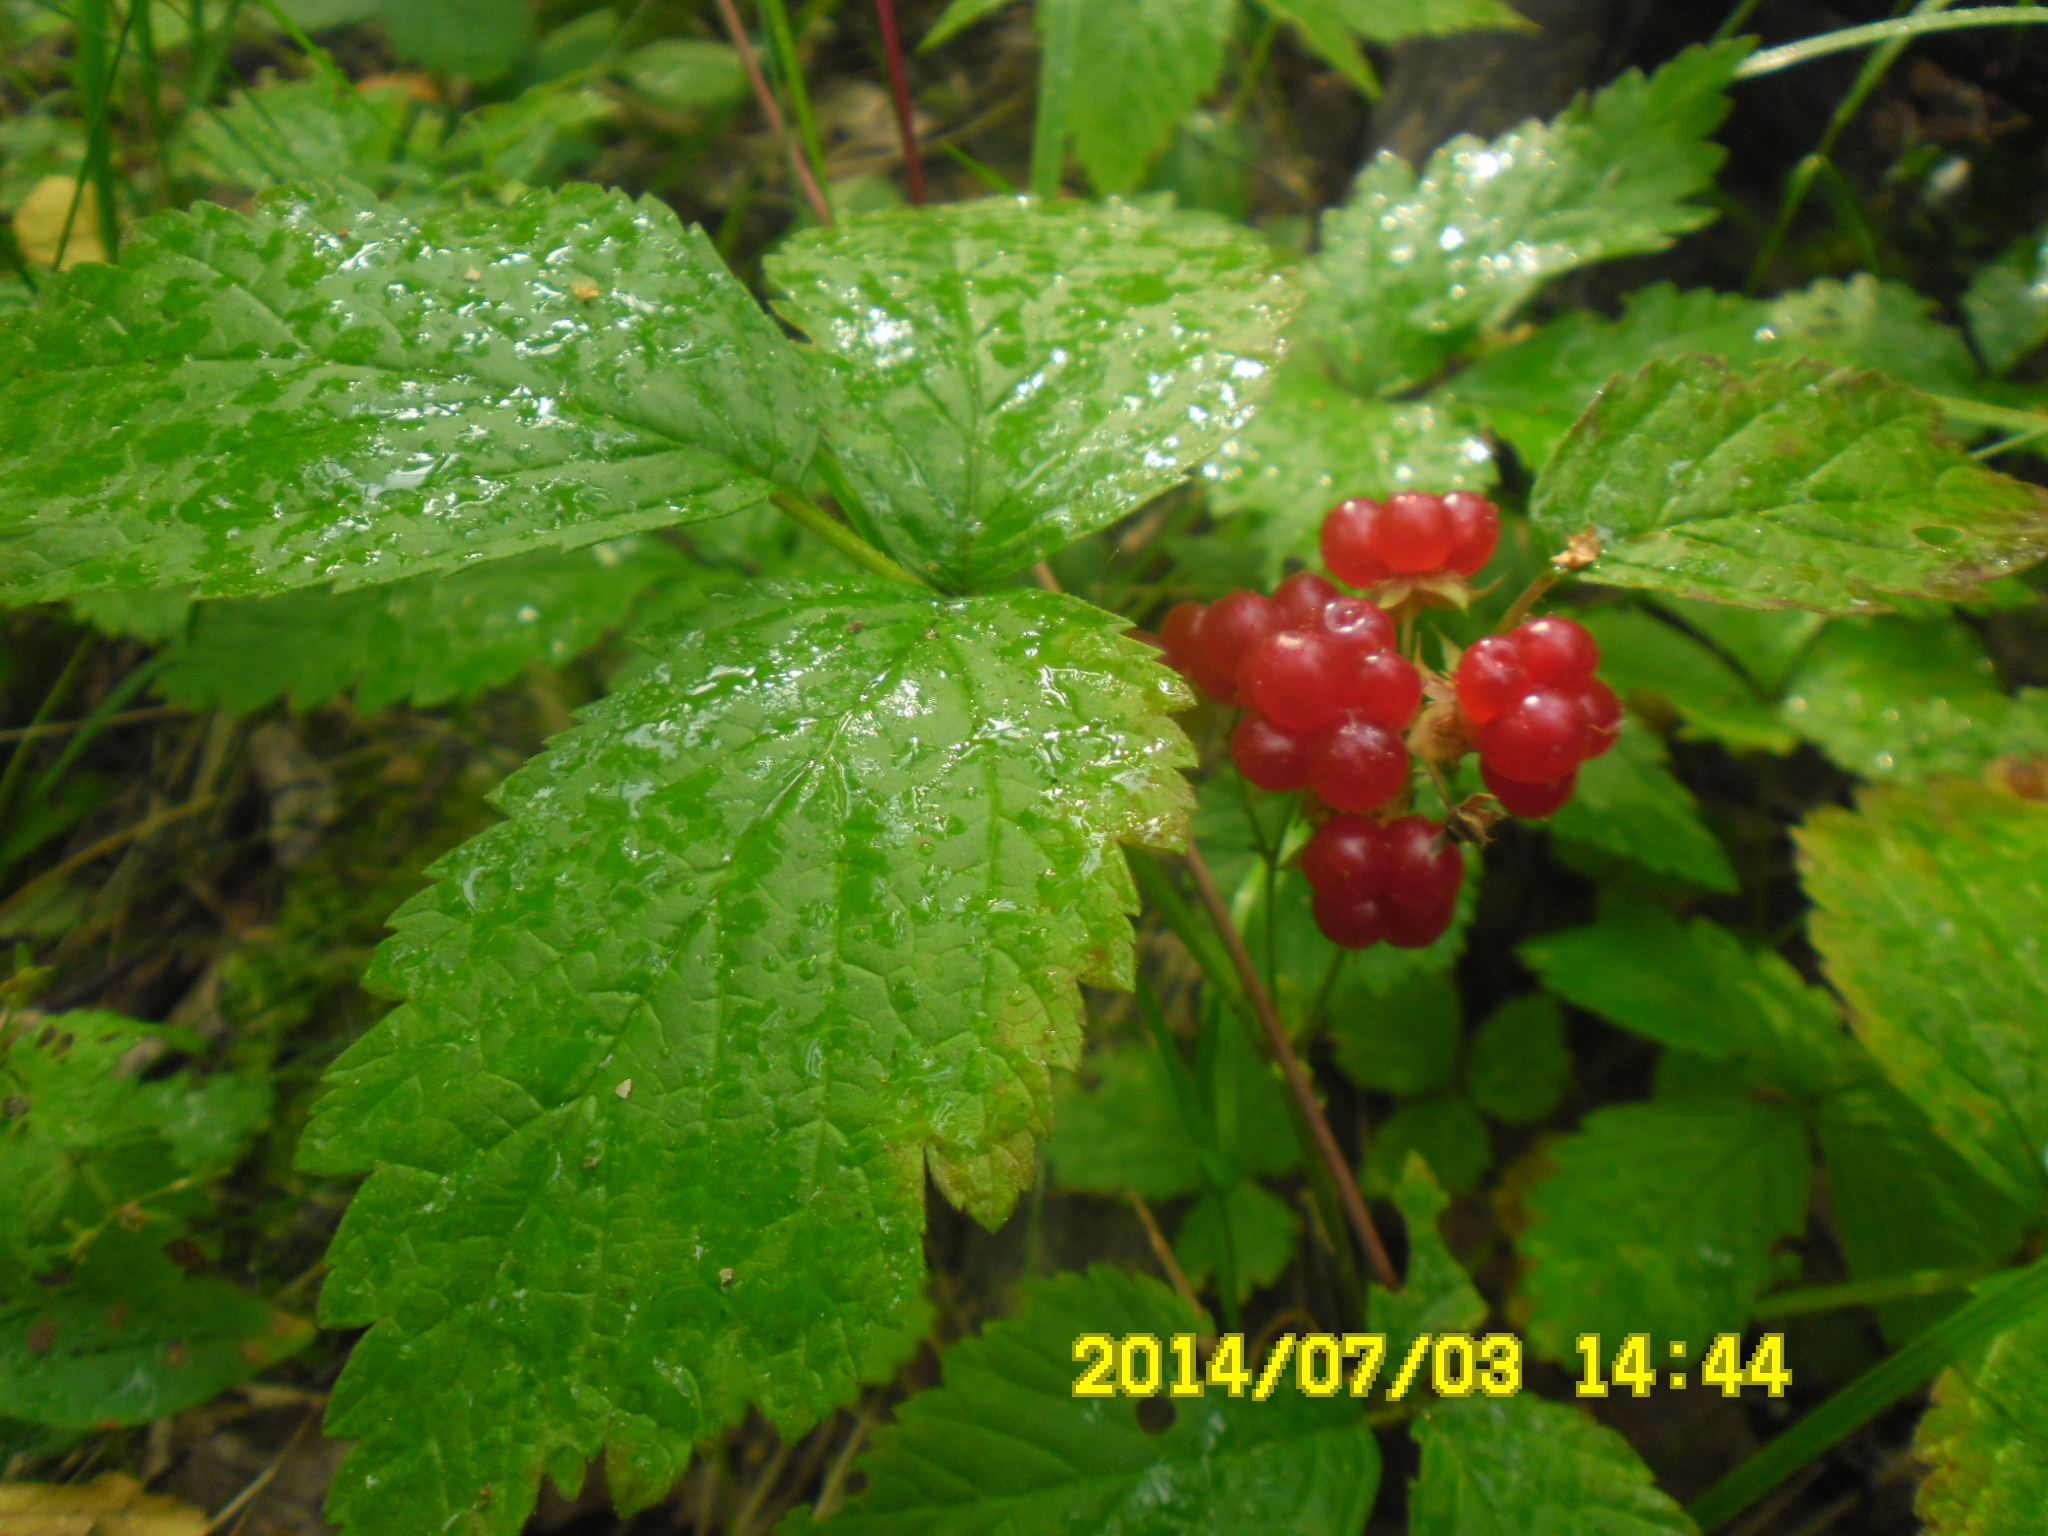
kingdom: Plantae
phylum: Tracheophyta
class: Magnoliopsida
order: Rosales
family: Rosaceae
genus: Rubus
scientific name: Rubus saxatilis
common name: Stone bramble
